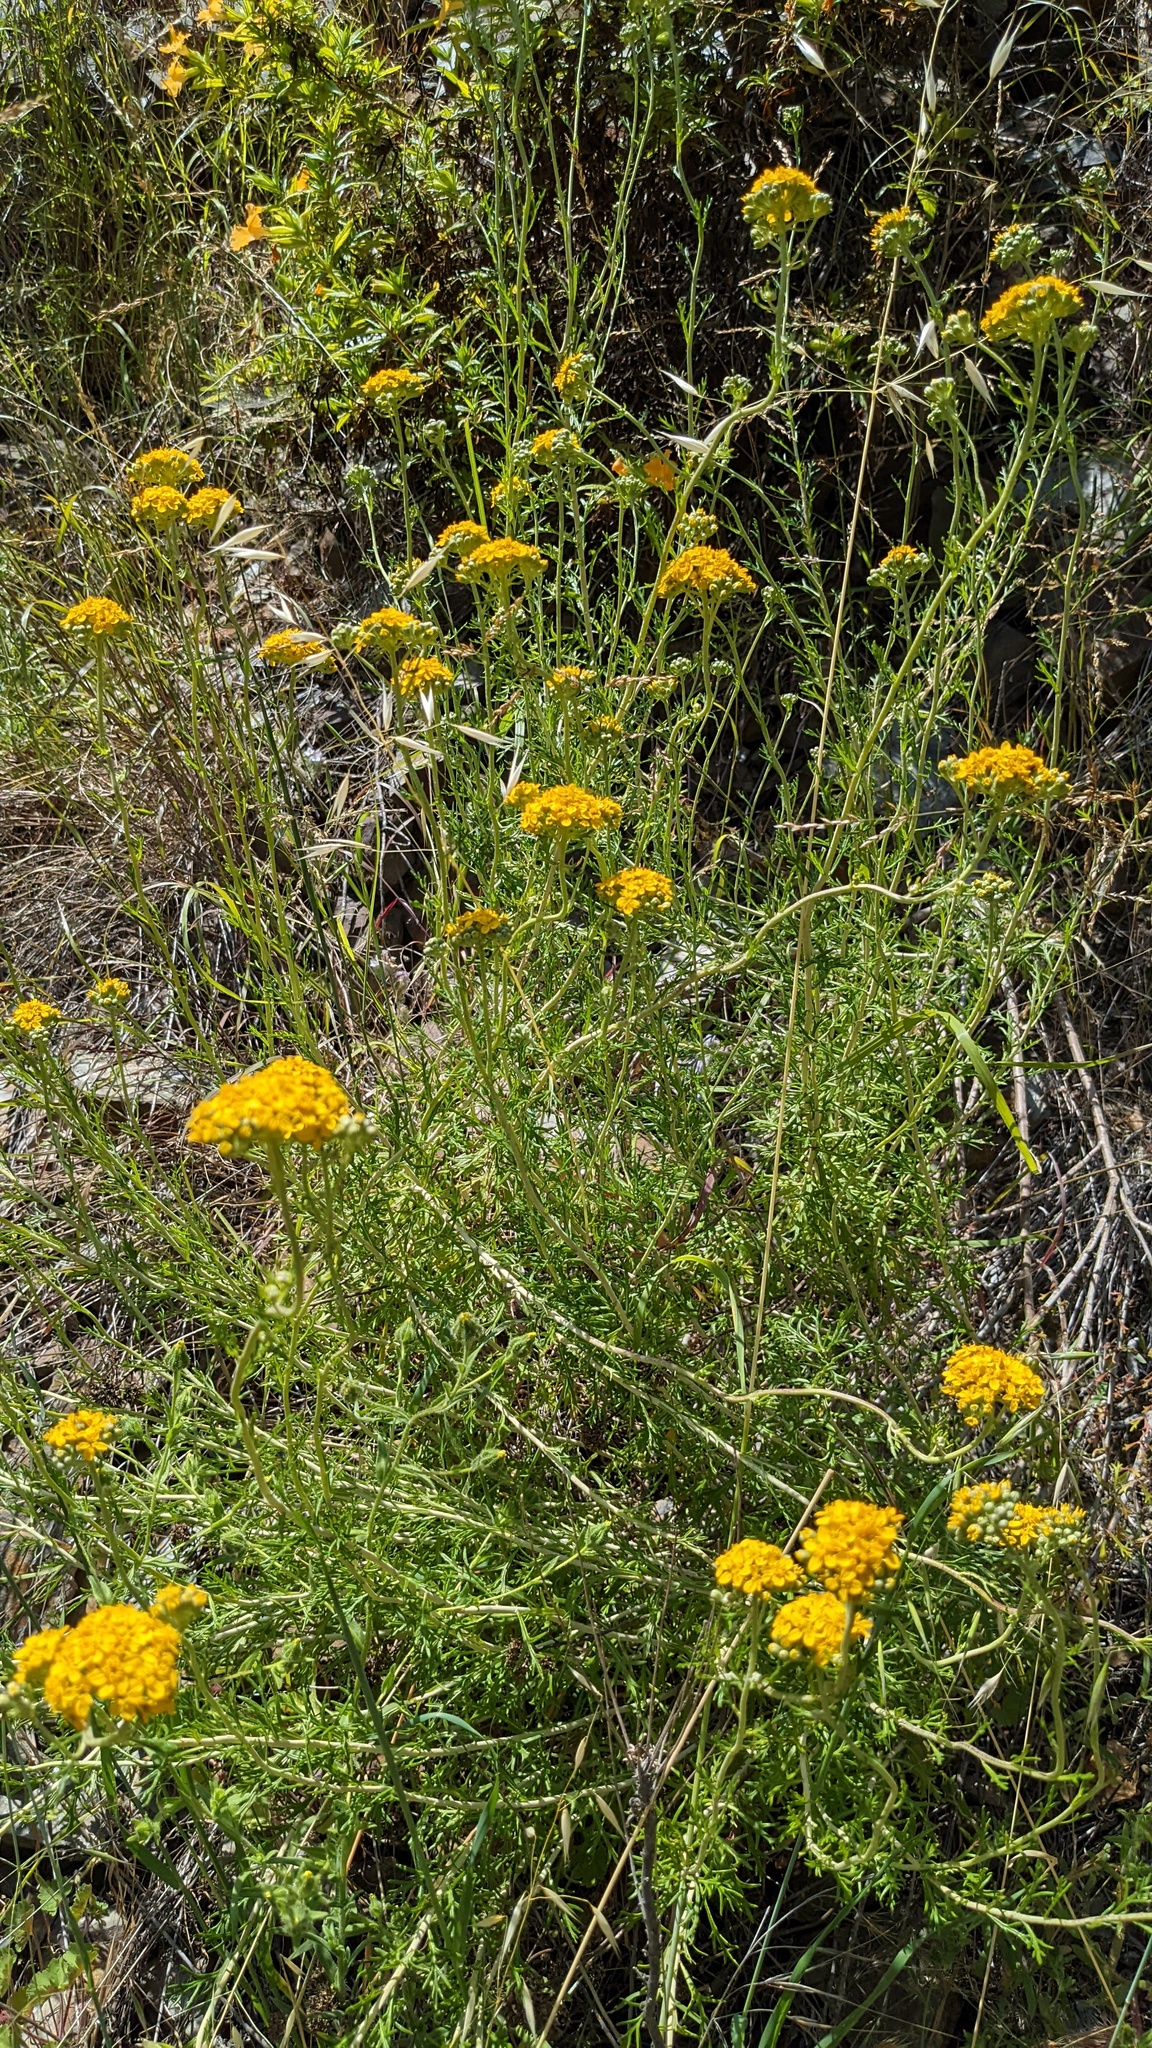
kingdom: Plantae
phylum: Tracheophyta
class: Magnoliopsida
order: Asterales
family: Asteraceae
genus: Eriophyllum
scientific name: Eriophyllum confertiflorum
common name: Golden-yarrow
